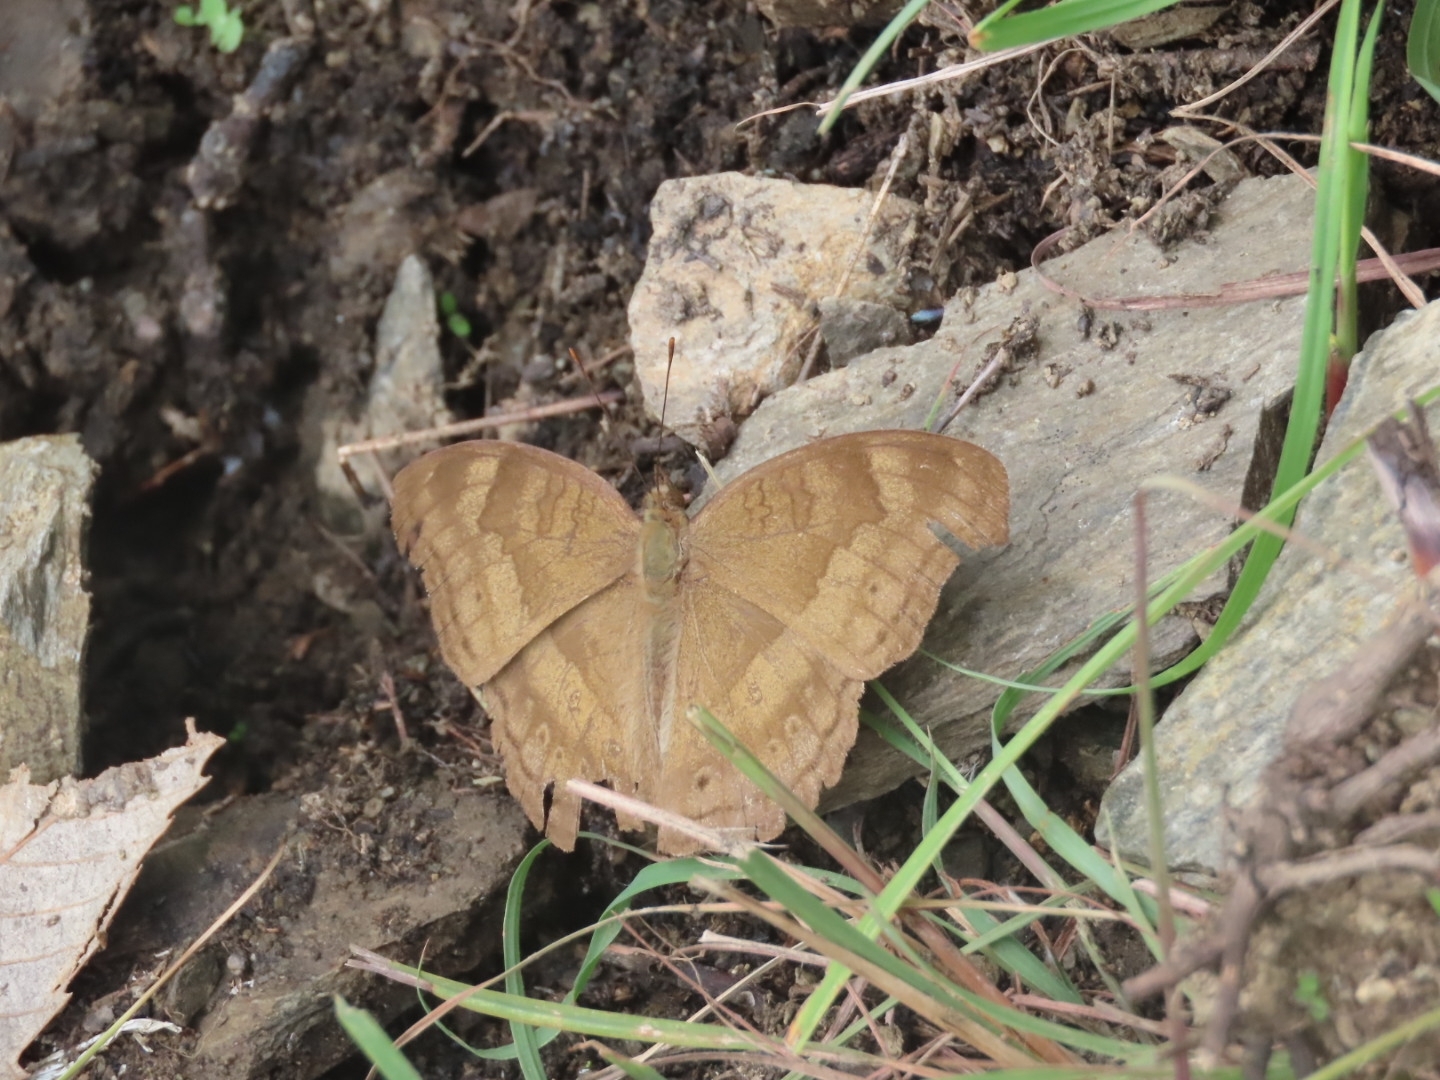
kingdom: Animalia
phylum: Arthropoda
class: Insecta
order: Lepidoptera
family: Nymphalidae
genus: Junonia
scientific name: Junonia iphita
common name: Chocolate pansy
